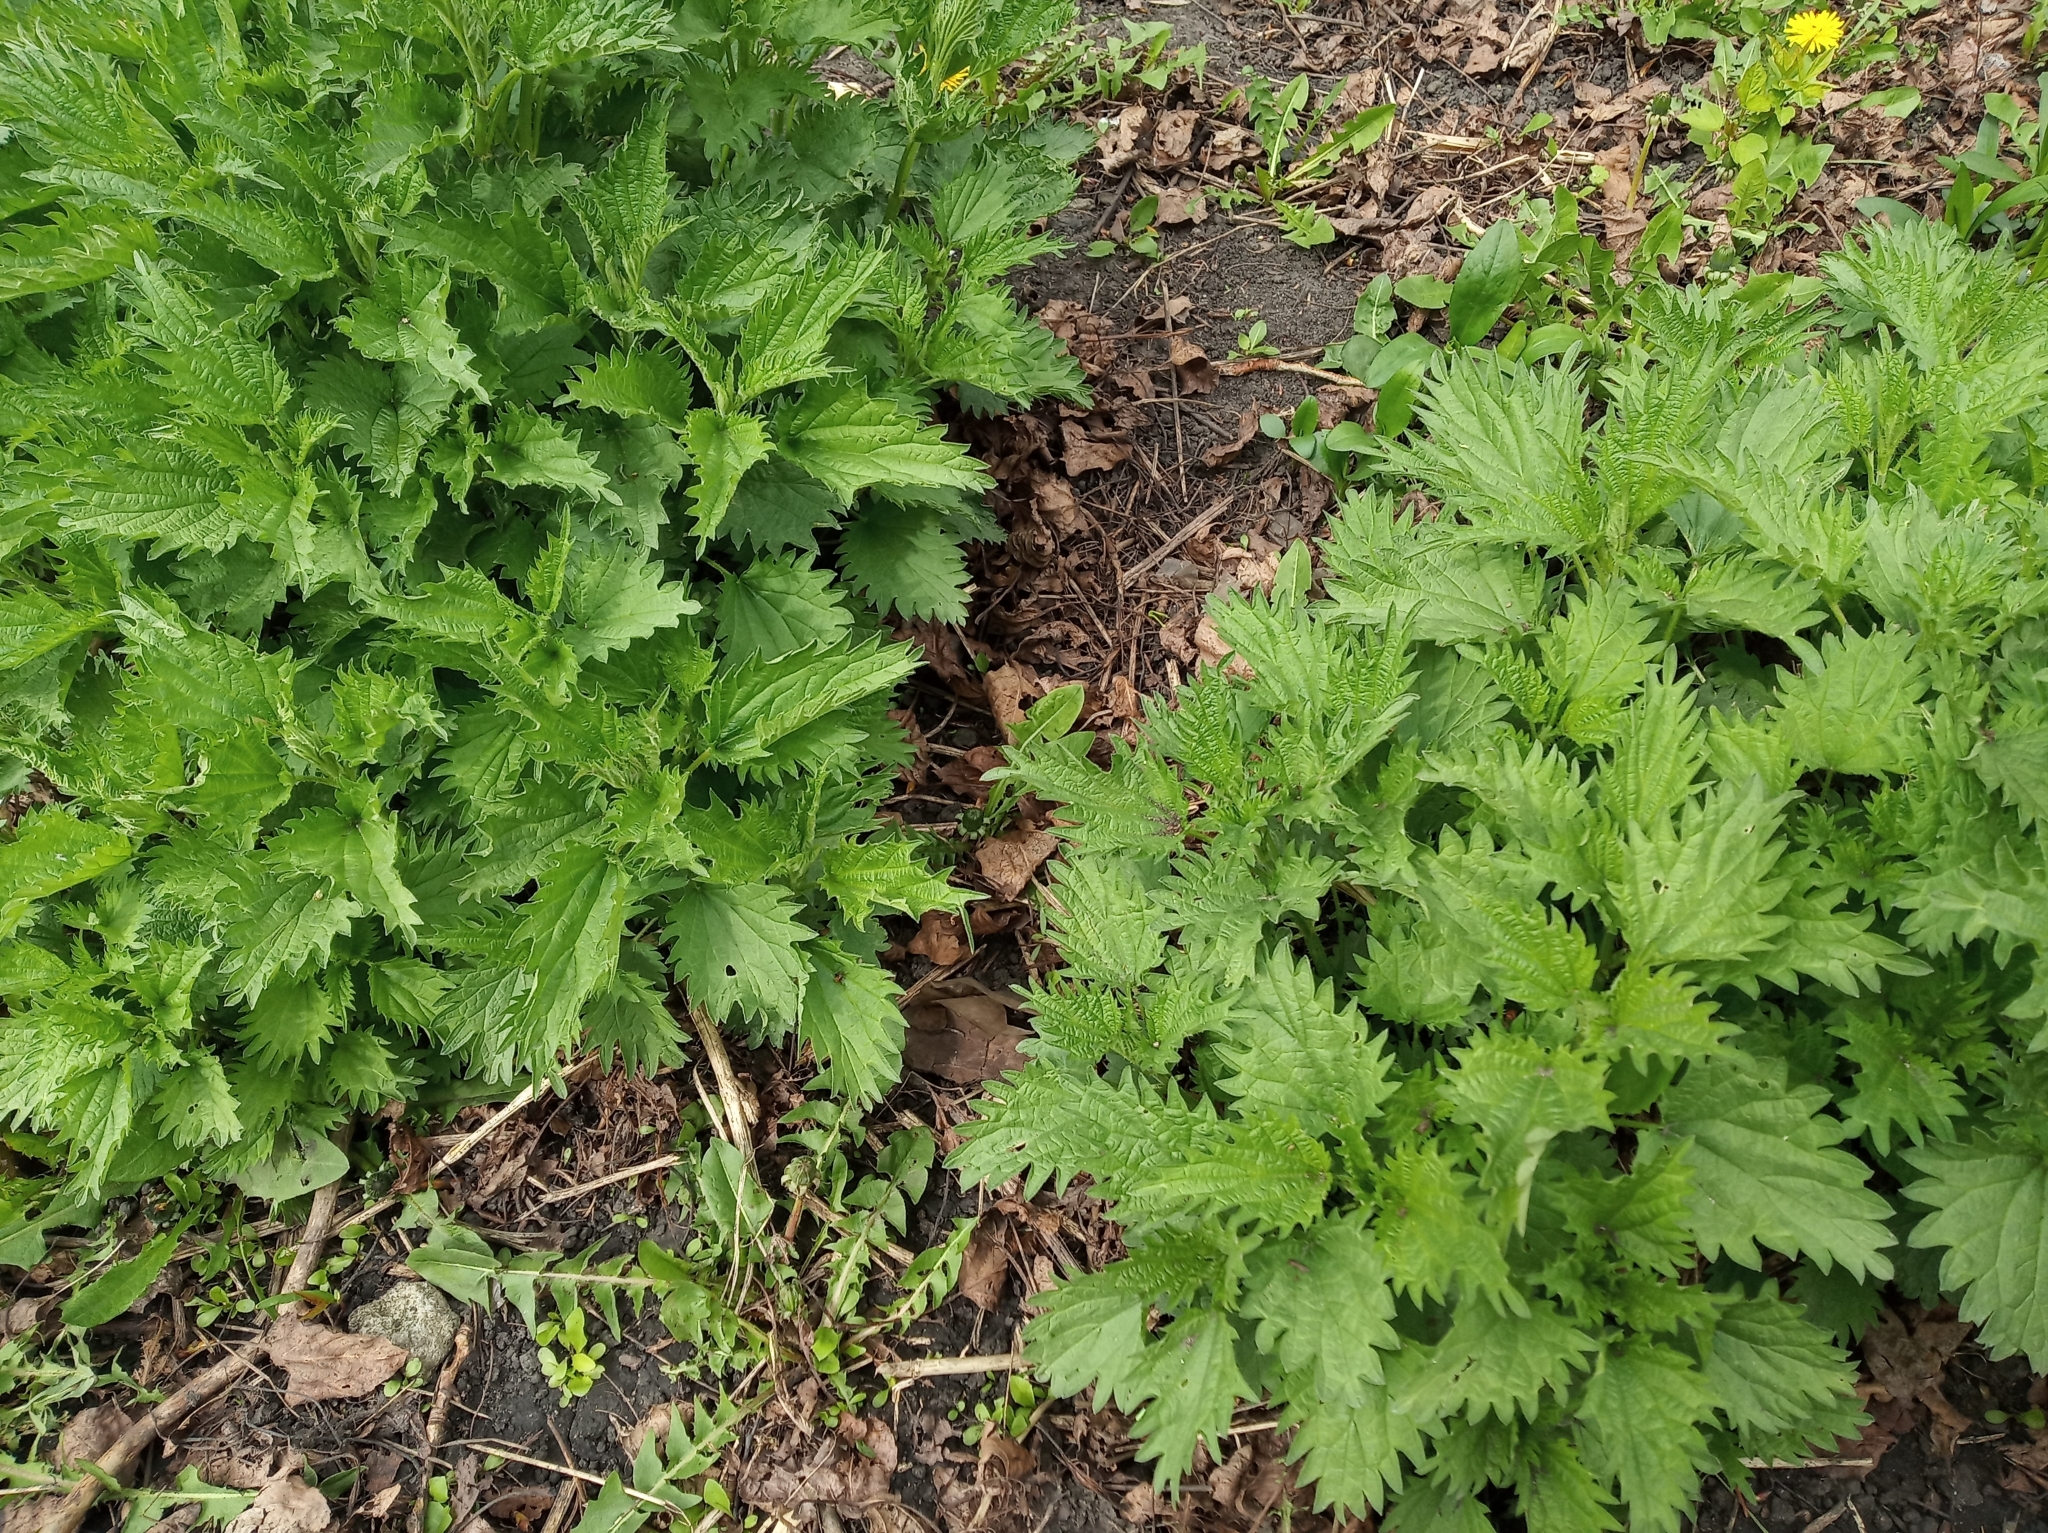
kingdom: Plantae
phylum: Tracheophyta
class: Magnoliopsida
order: Rosales
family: Urticaceae
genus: Urtica
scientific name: Urtica dioica
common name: Common nettle
